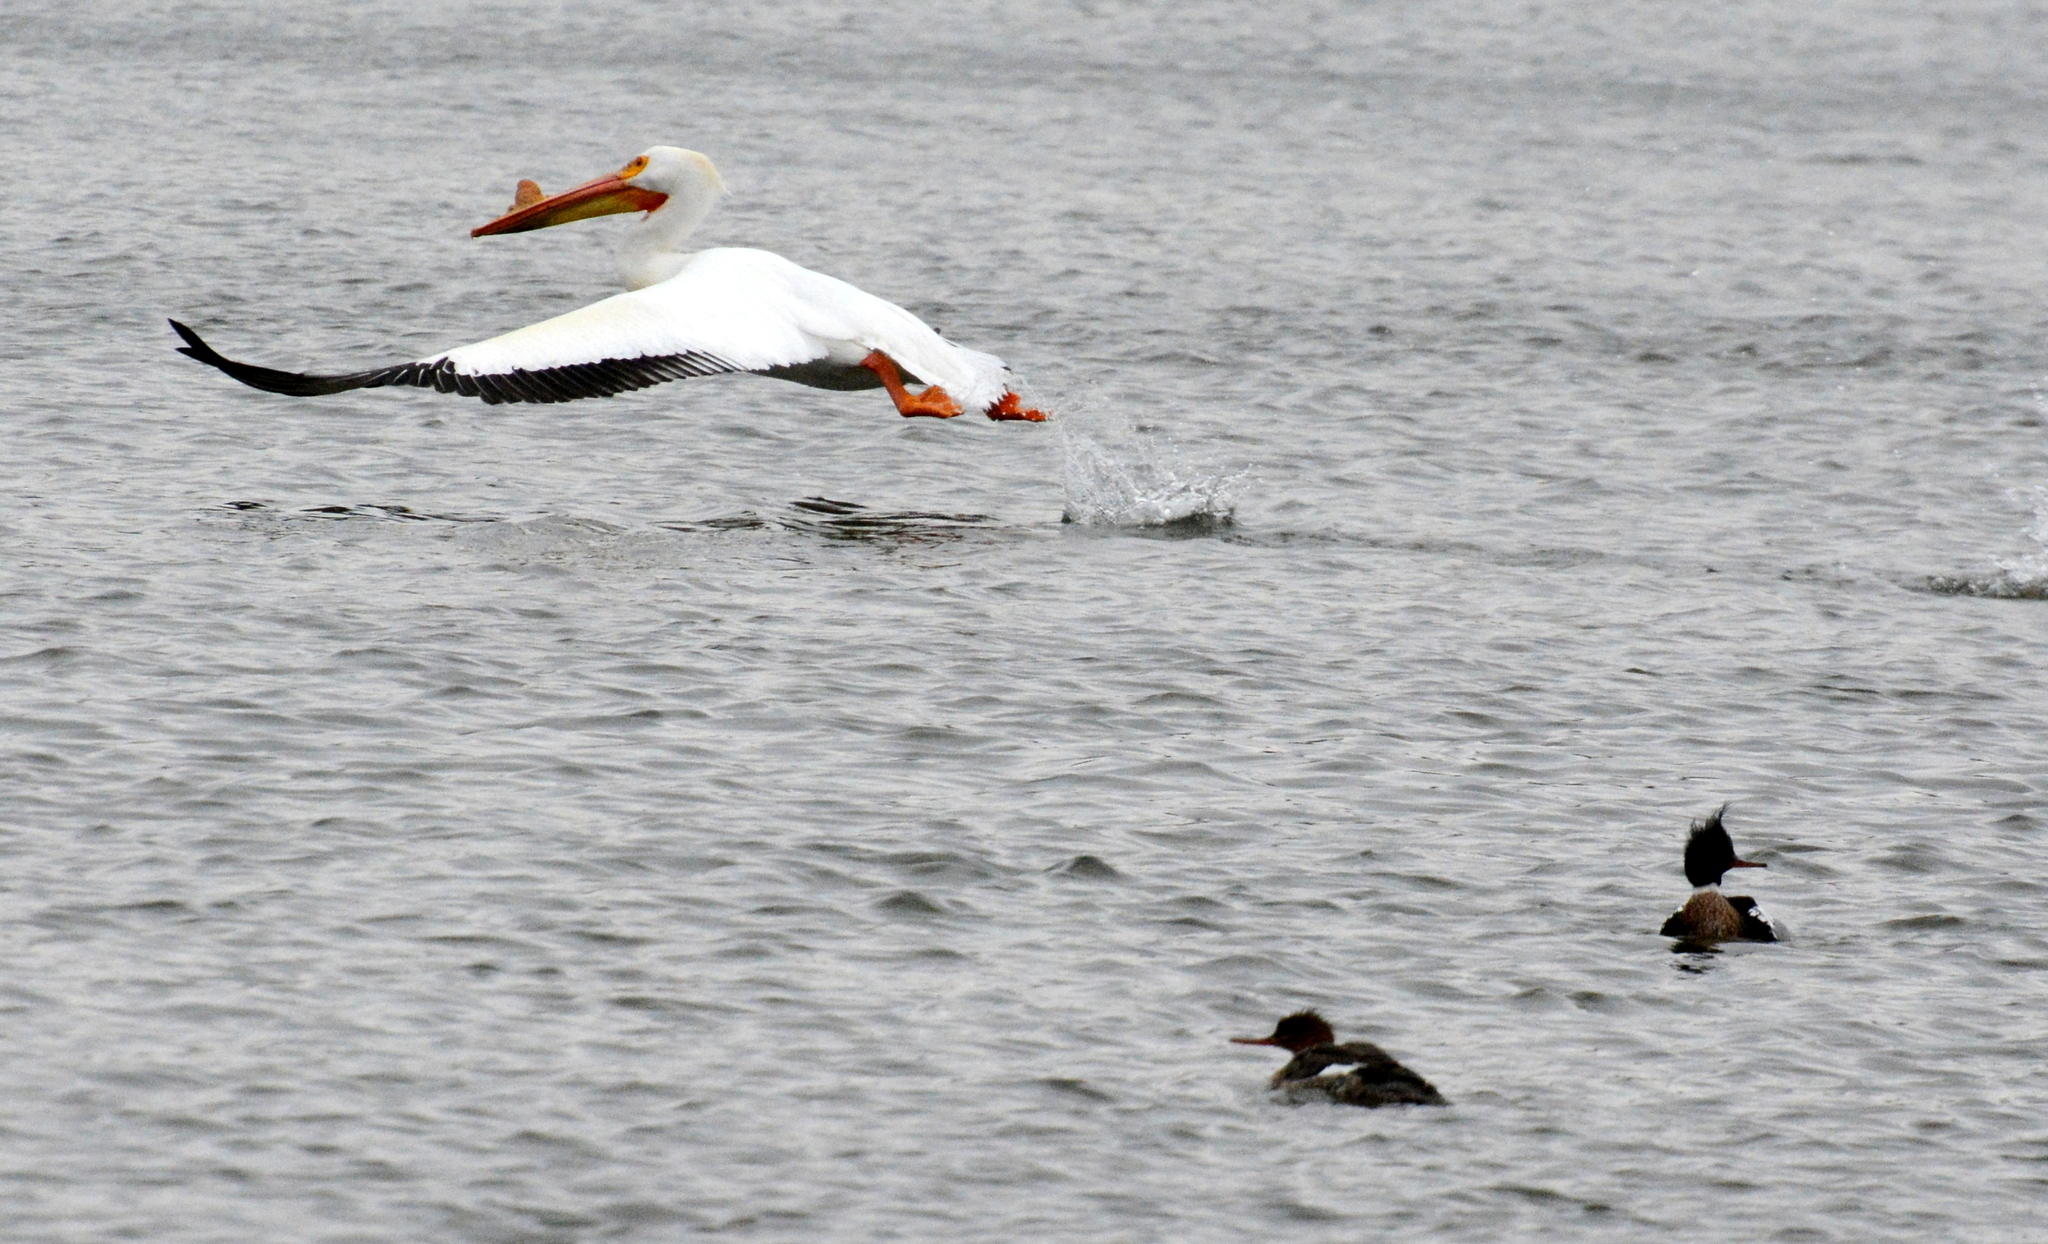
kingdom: Animalia
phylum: Chordata
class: Aves
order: Pelecaniformes
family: Pelecanidae
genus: Pelecanus
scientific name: Pelecanus erythrorhynchos
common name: American white pelican
